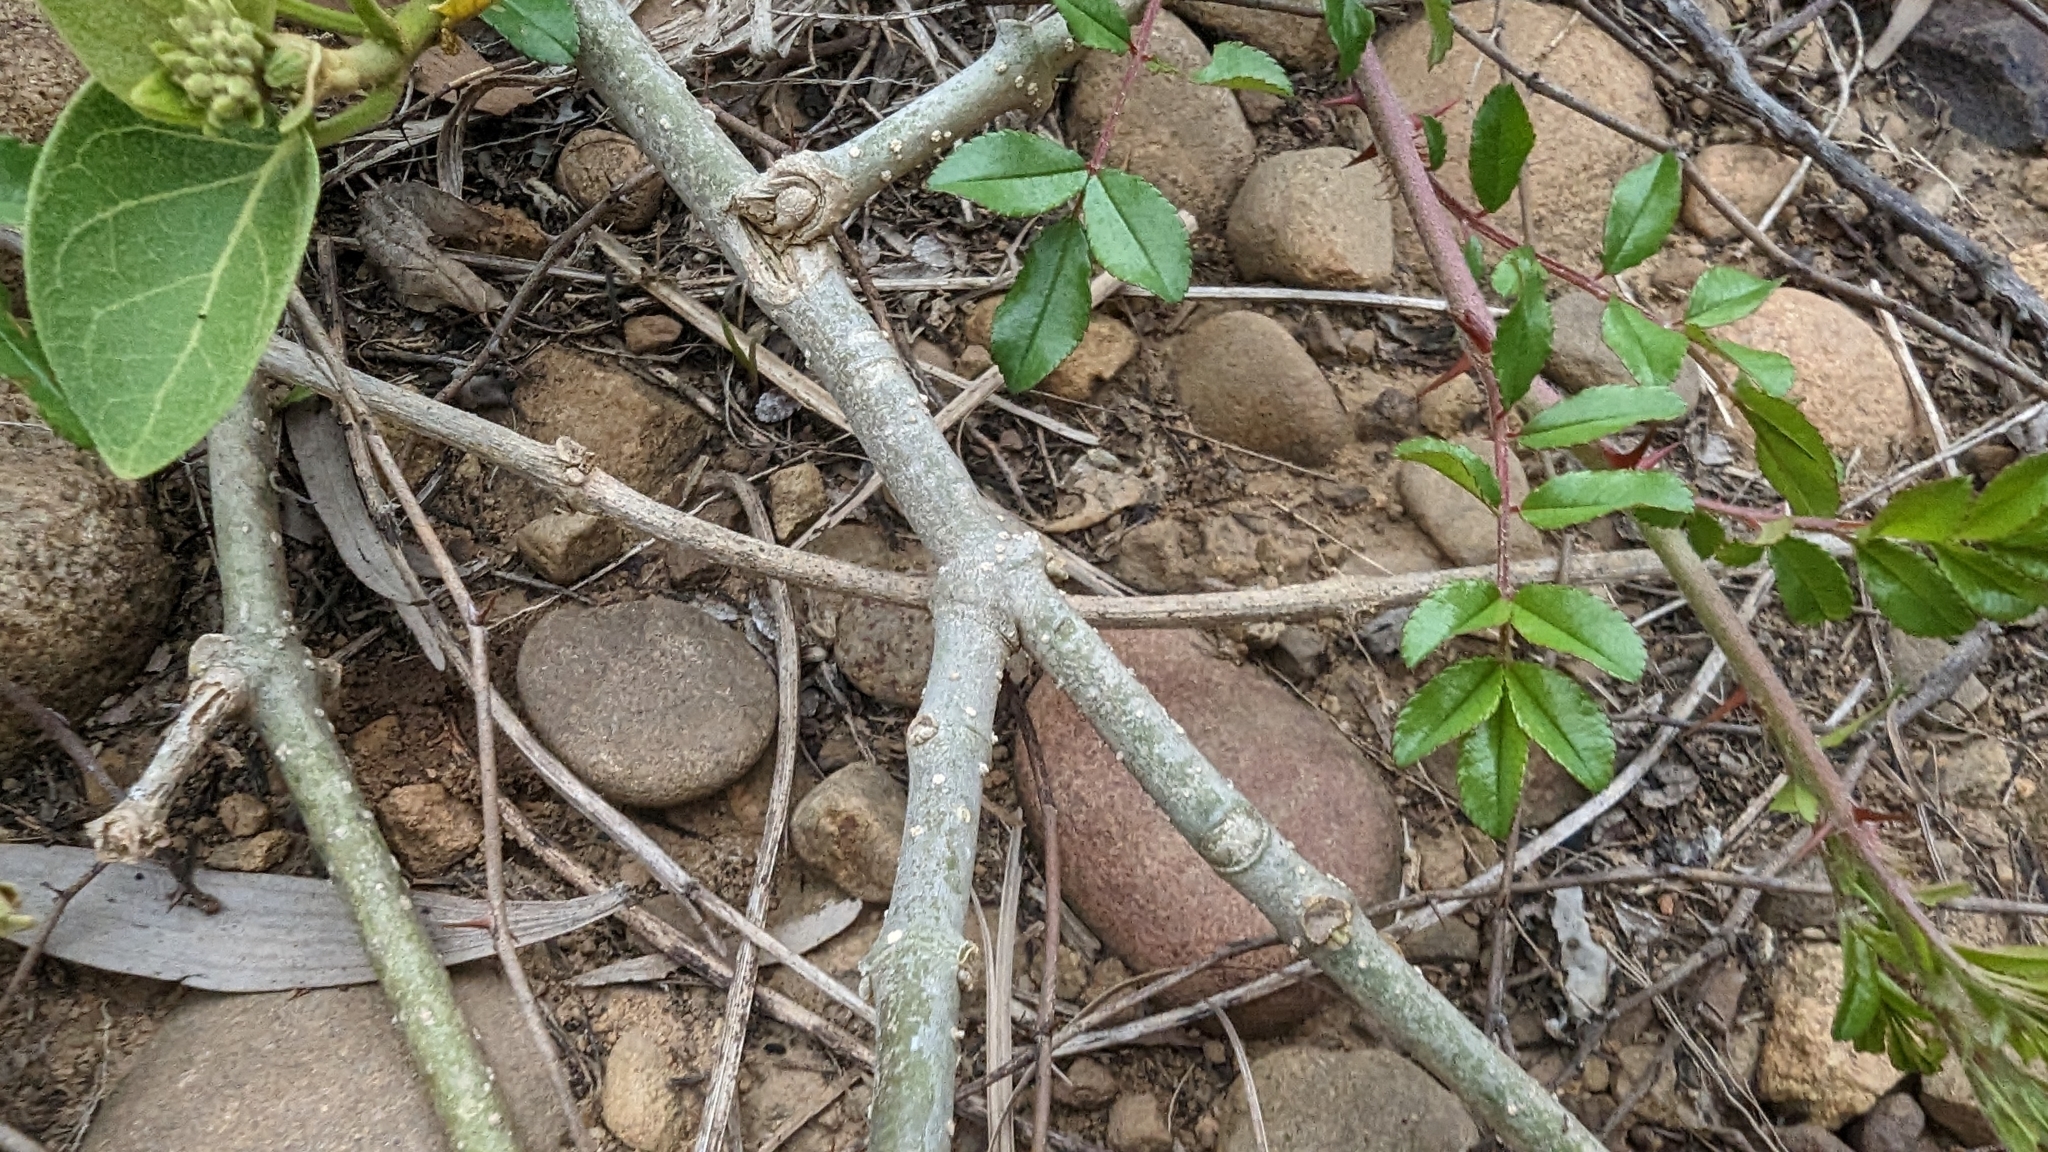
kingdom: Plantae
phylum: Tracheophyta
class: Magnoliopsida
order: Gentianales
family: Apocynaceae
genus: Stephanotis
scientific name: Stephanotis volubilis
